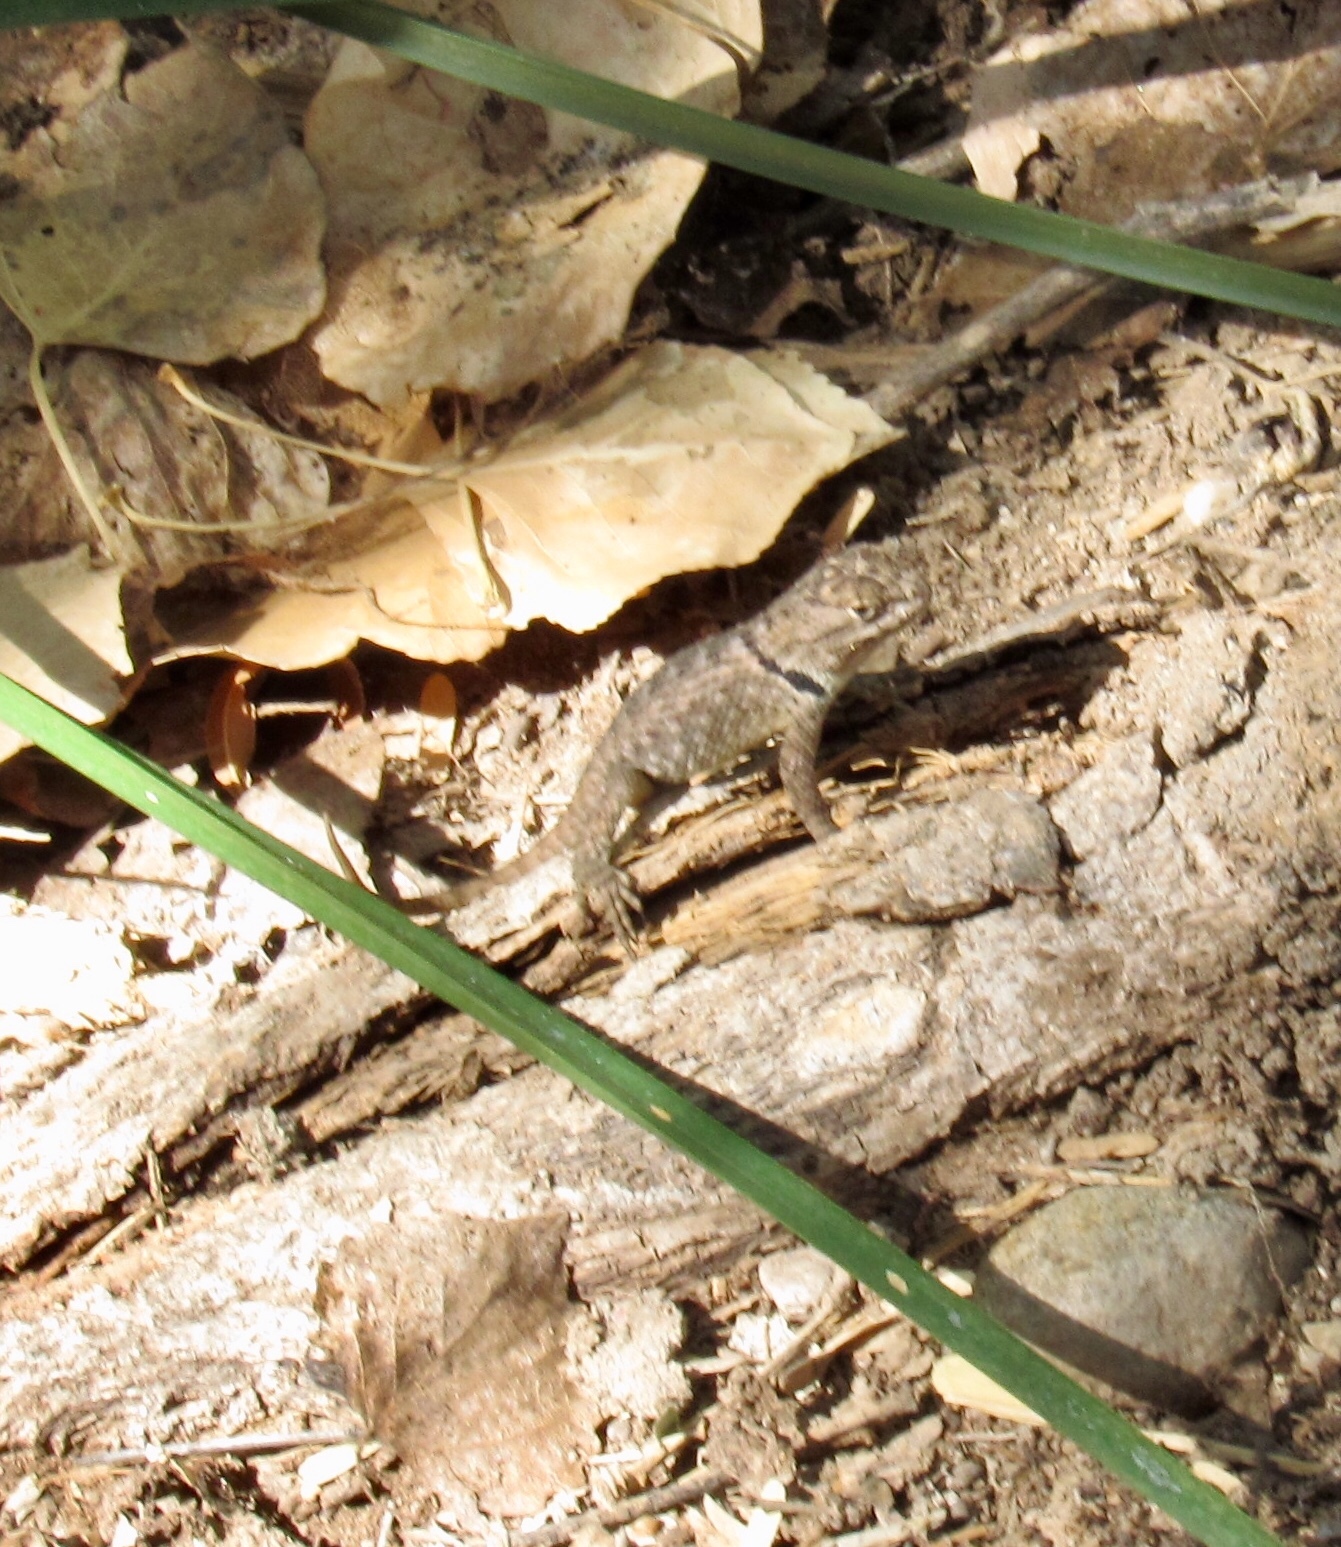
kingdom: Animalia
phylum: Chordata
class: Squamata
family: Phrynosomatidae
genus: Sceloporus
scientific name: Sceloporus magister
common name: Desert spiny lizard
